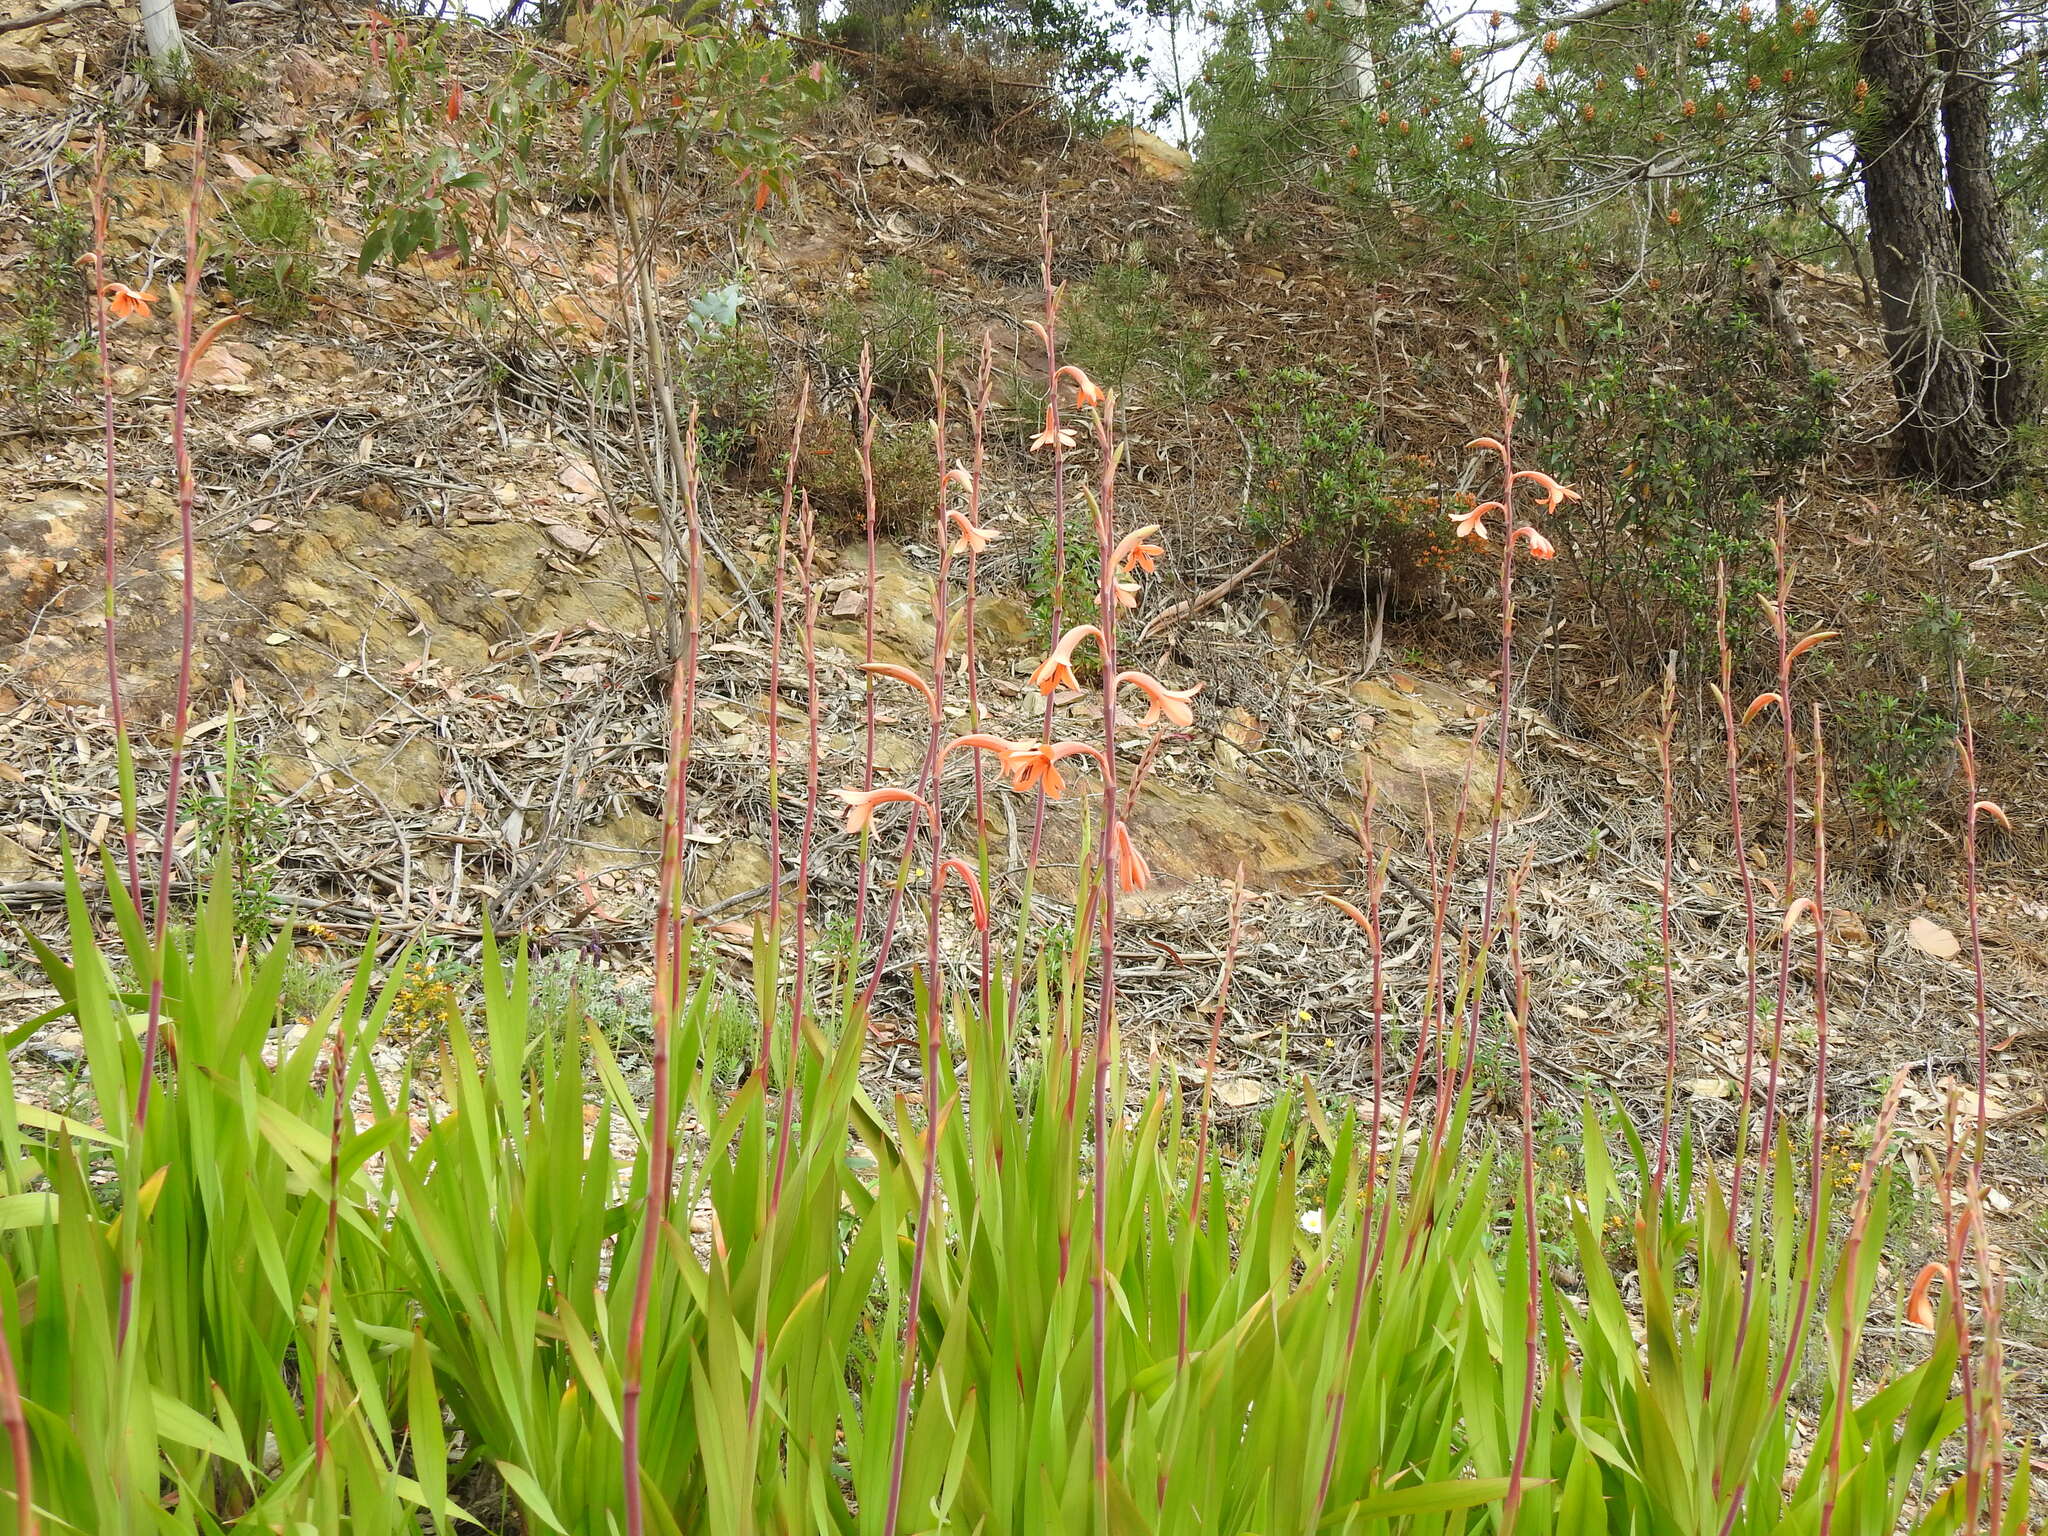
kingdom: Plantae
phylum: Tracheophyta
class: Liliopsida
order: Asparagales
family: Iridaceae
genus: Watsonia
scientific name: Watsonia meriana
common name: Bulbil bugle-lily
